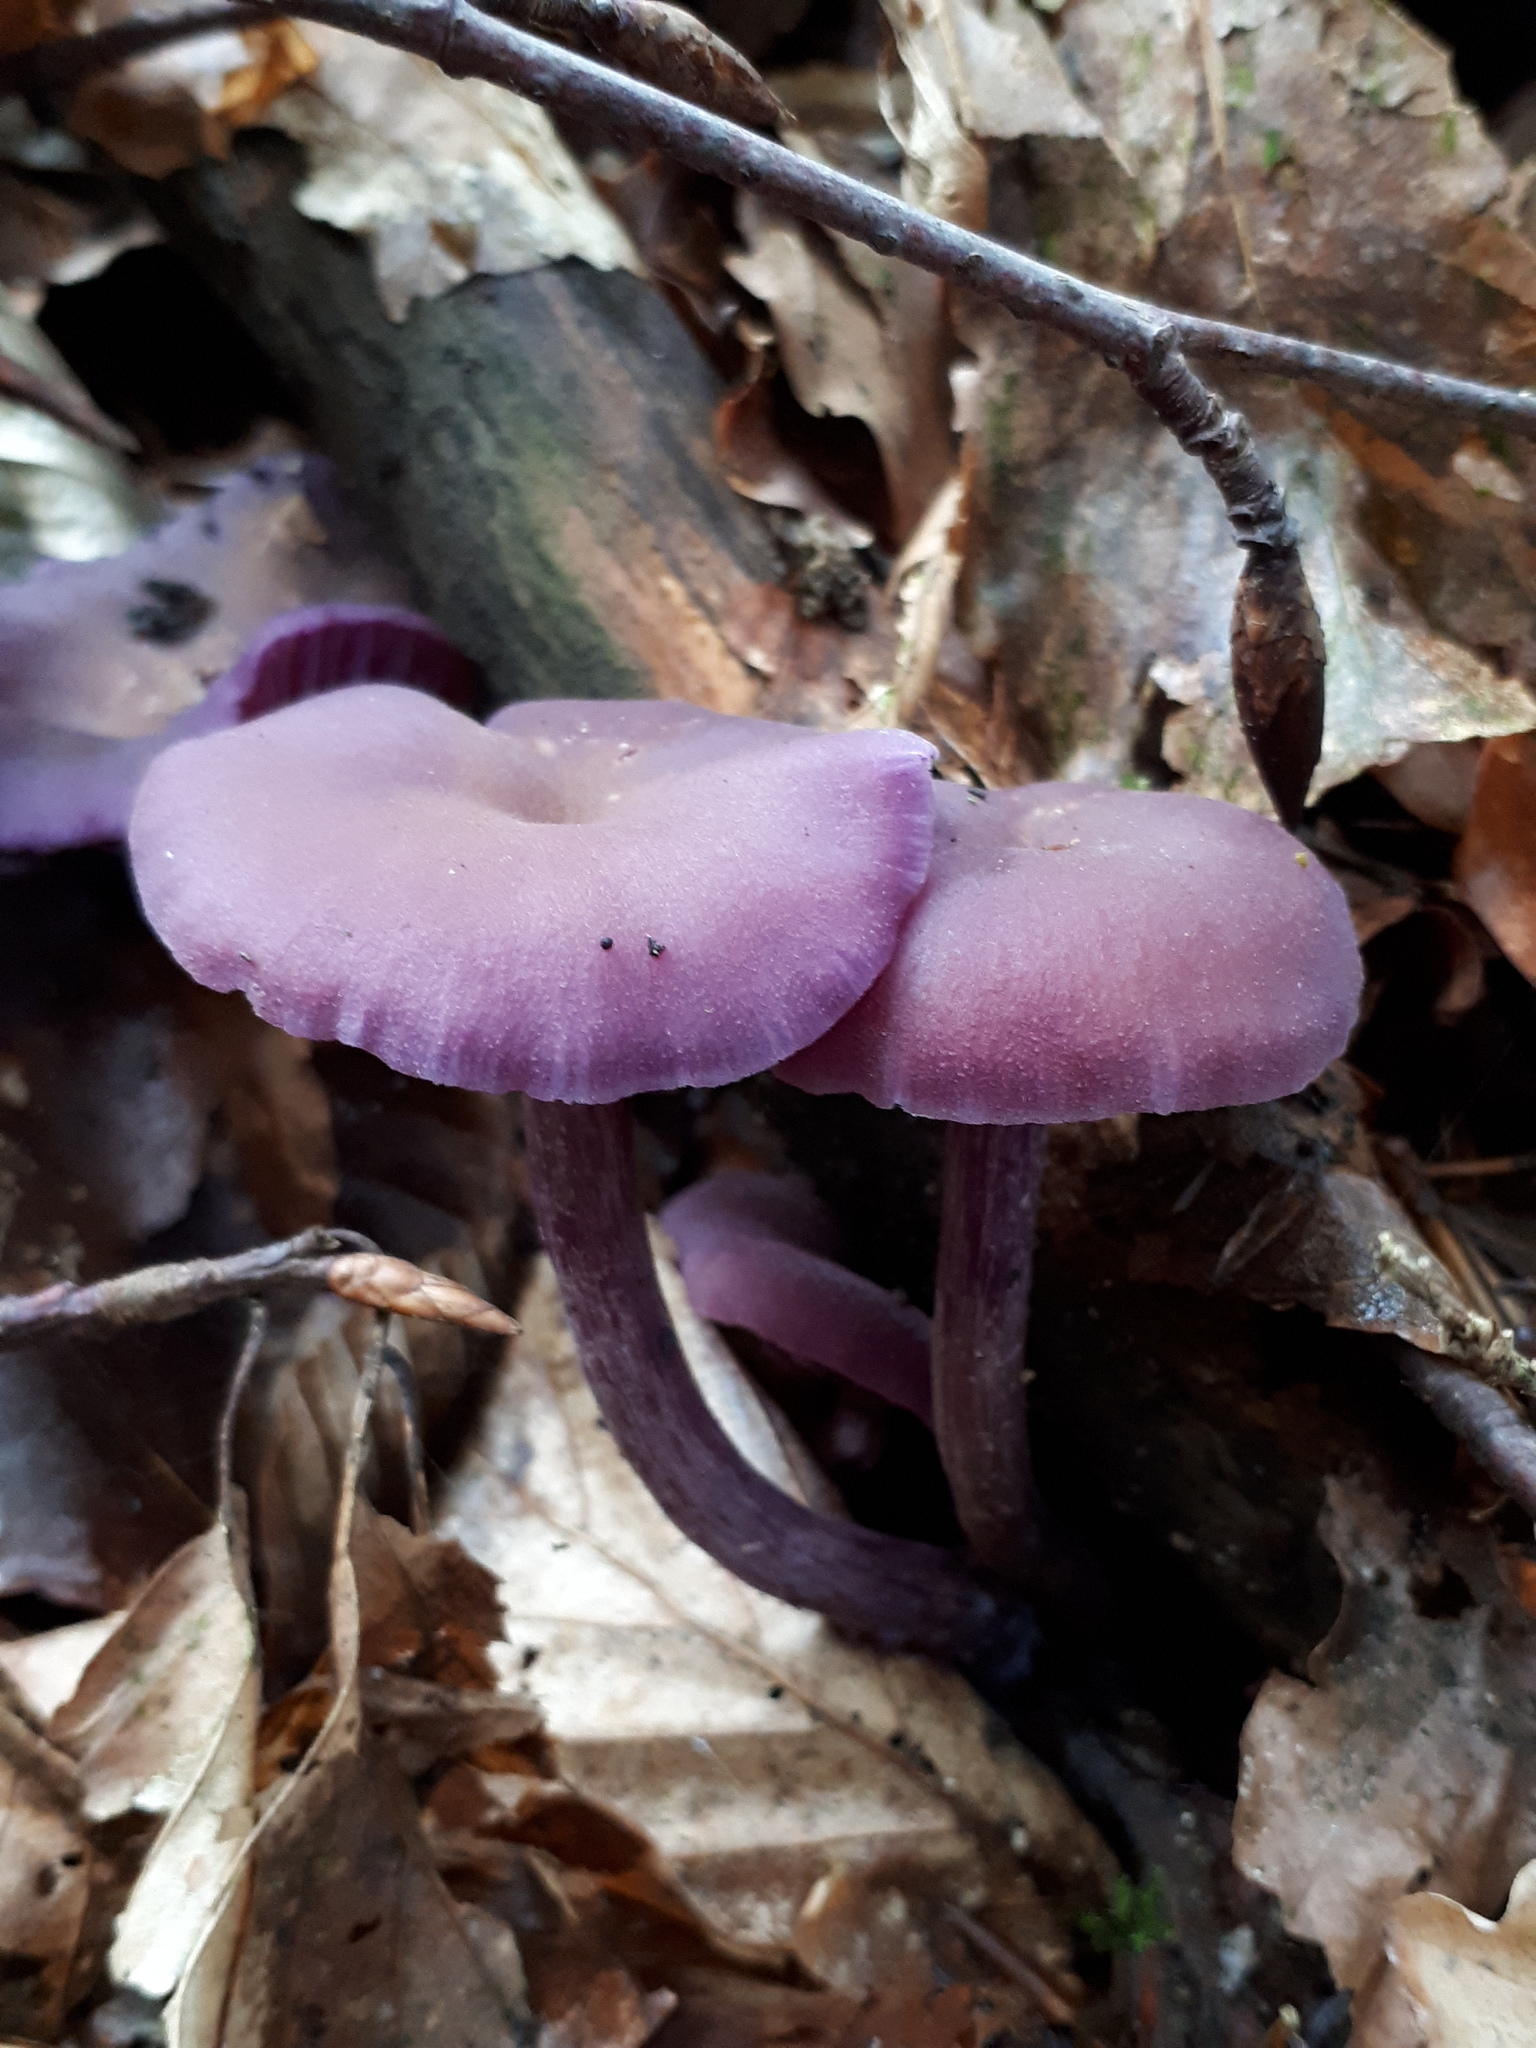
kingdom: Fungi
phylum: Basidiomycota
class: Agaricomycetes
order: Agaricales
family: Hydnangiaceae
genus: Laccaria
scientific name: Laccaria amethystina
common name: Amethyst deceiver
